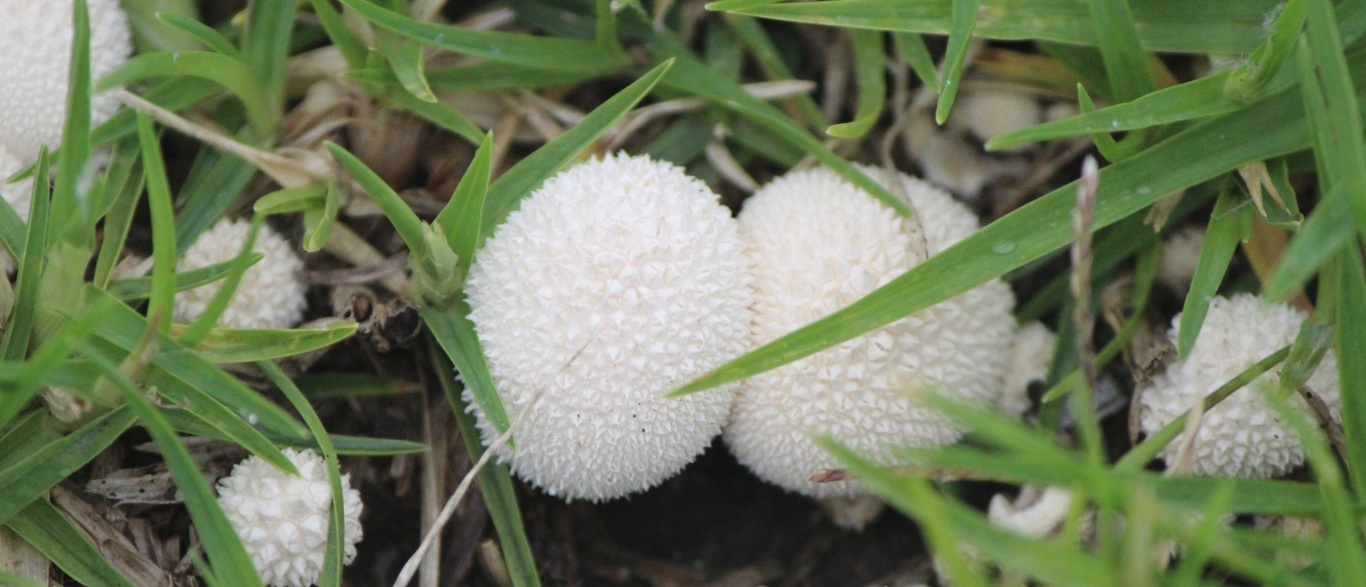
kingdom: Fungi
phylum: Basidiomycota
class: Agaricomycetes
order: Agaricales
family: Lycoperdaceae
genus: Lycoperdon
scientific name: Lycoperdon perlatum
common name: Common puffball
